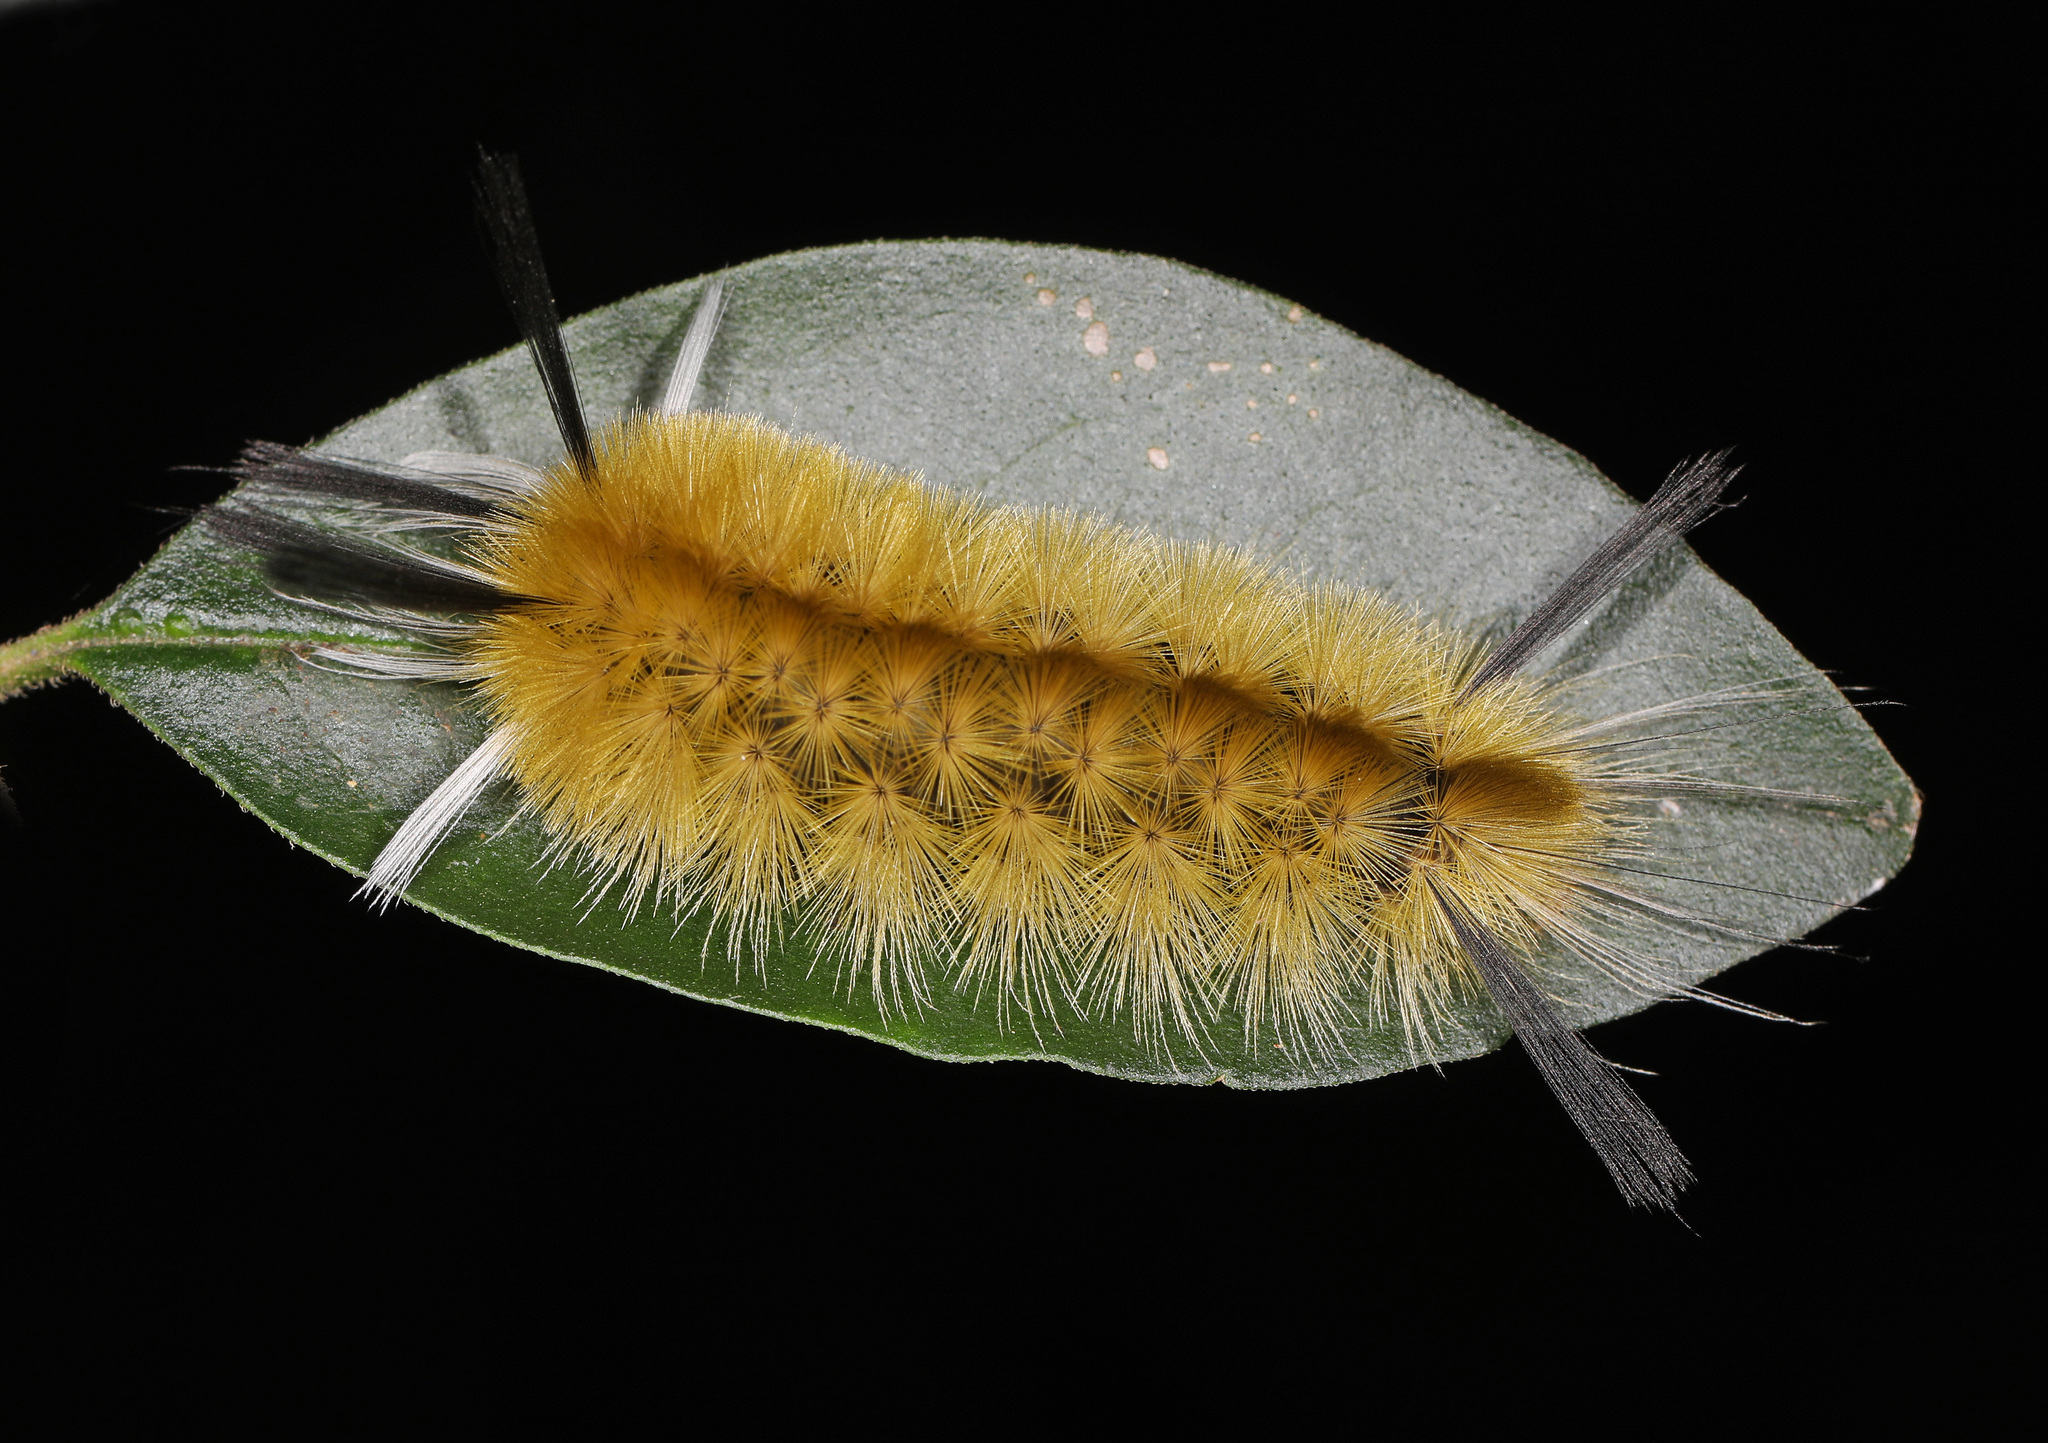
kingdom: Animalia
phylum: Arthropoda
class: Insecta
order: Lepidoptera
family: Erebidae
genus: Halysidota
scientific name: Halysidota tessellaris
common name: Banded tussock moth
